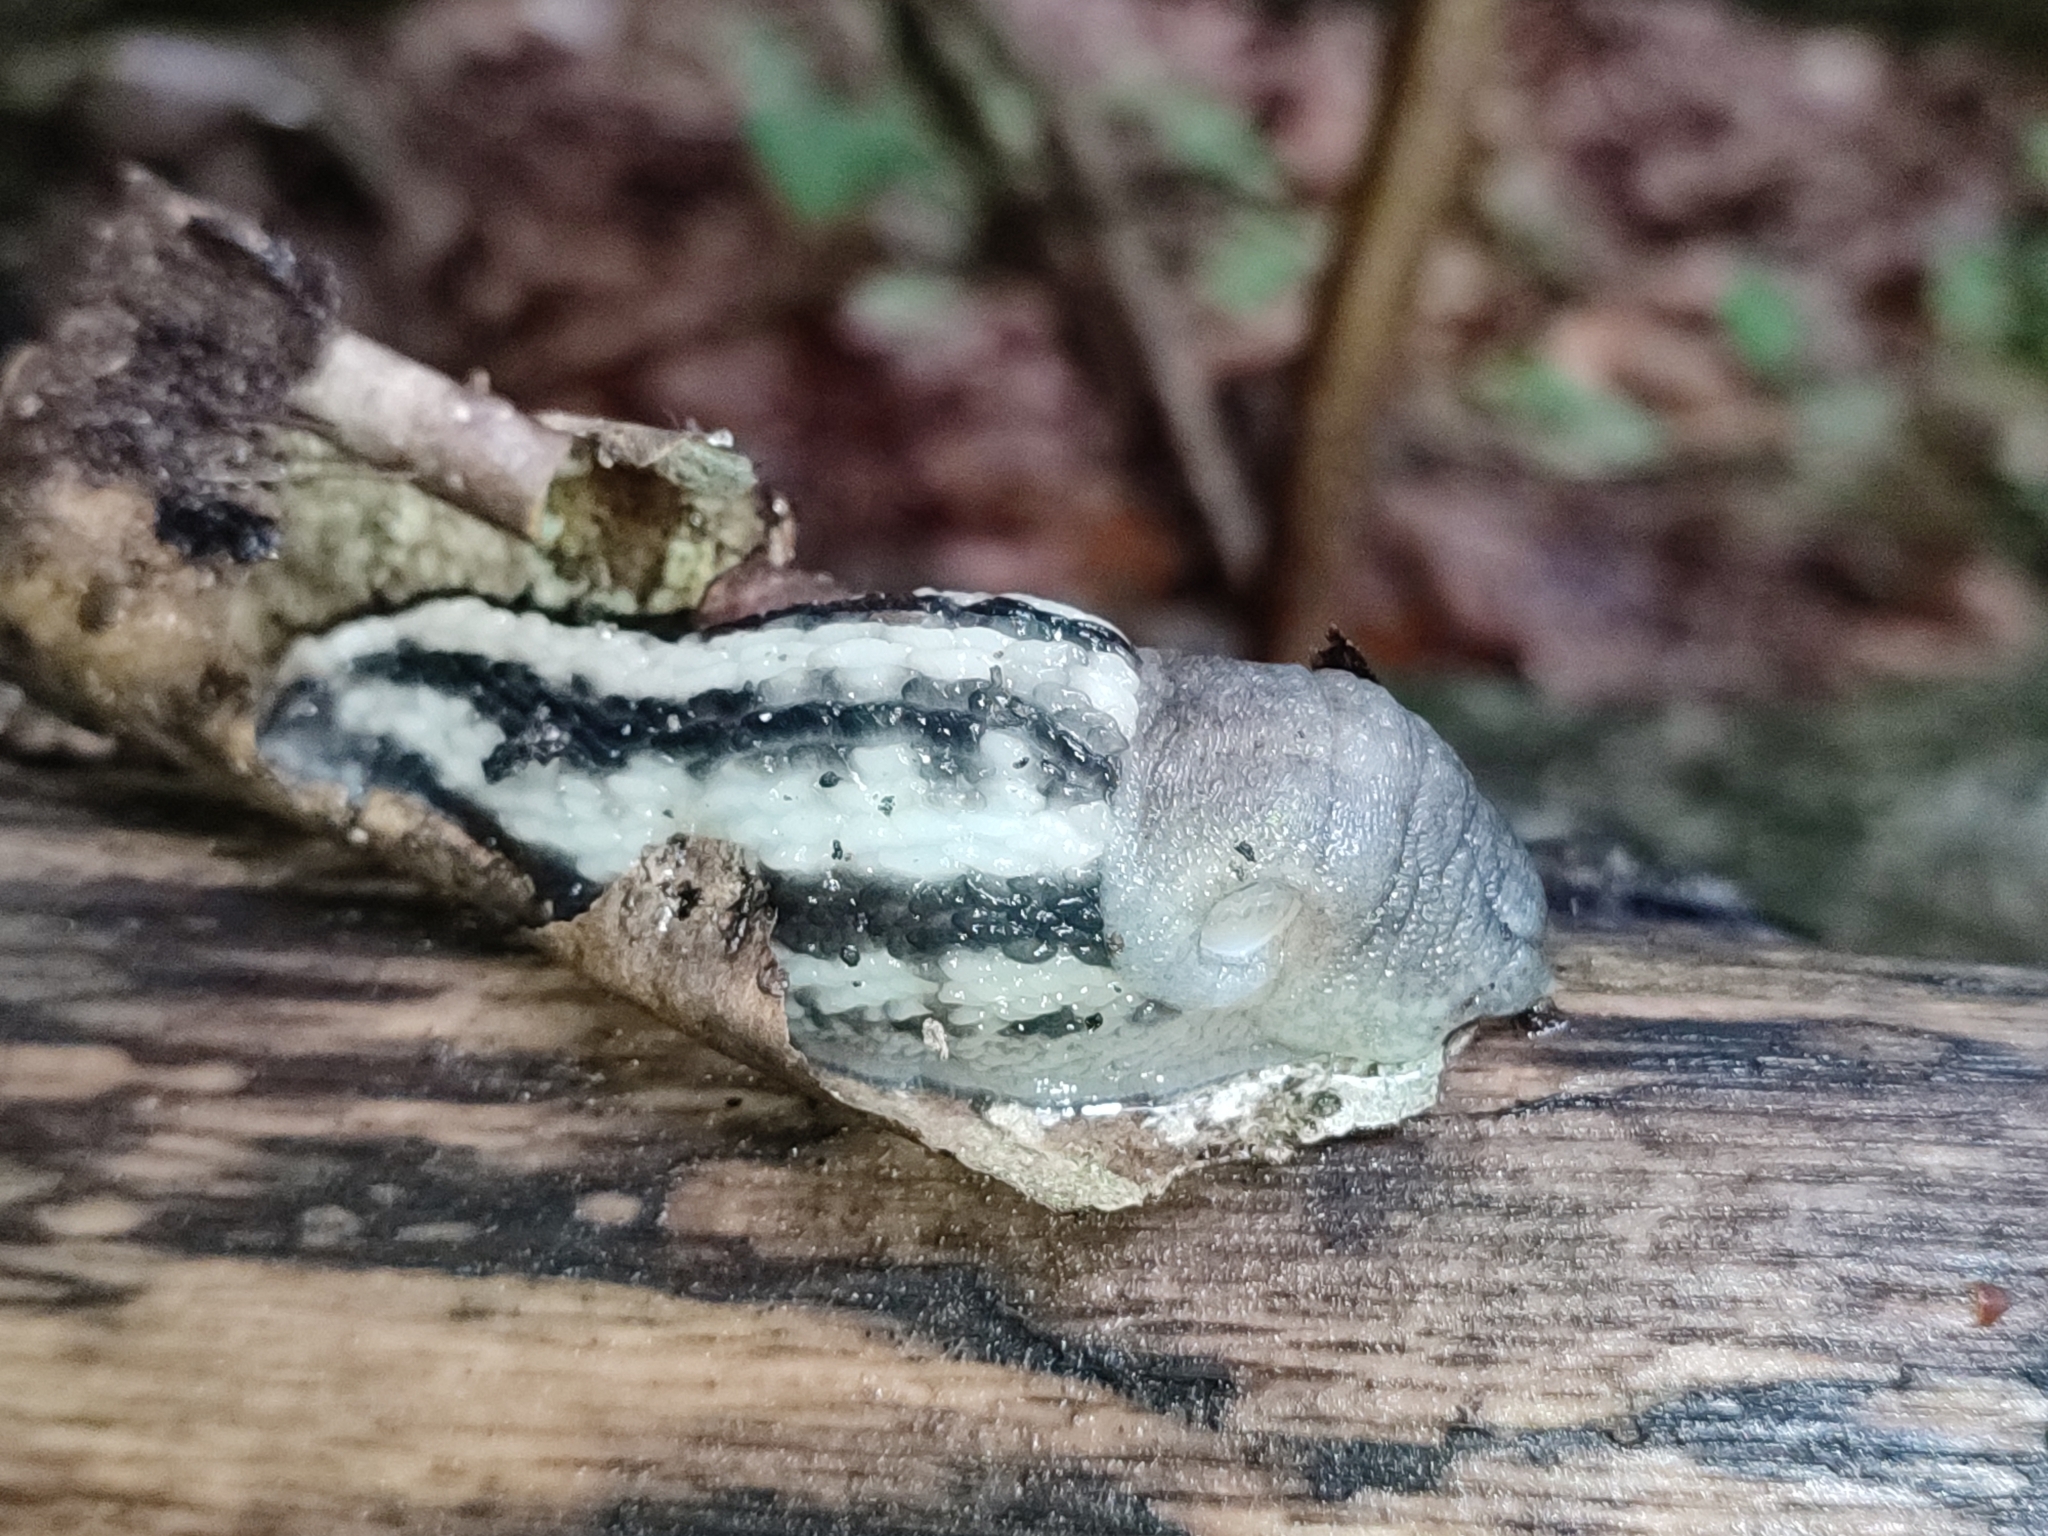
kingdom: Animalia
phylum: Mollusca
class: Gastropoda
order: Stylommatophora
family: Limacidae
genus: Limax
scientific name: Limax cinereoniger
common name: Ash-black slug
